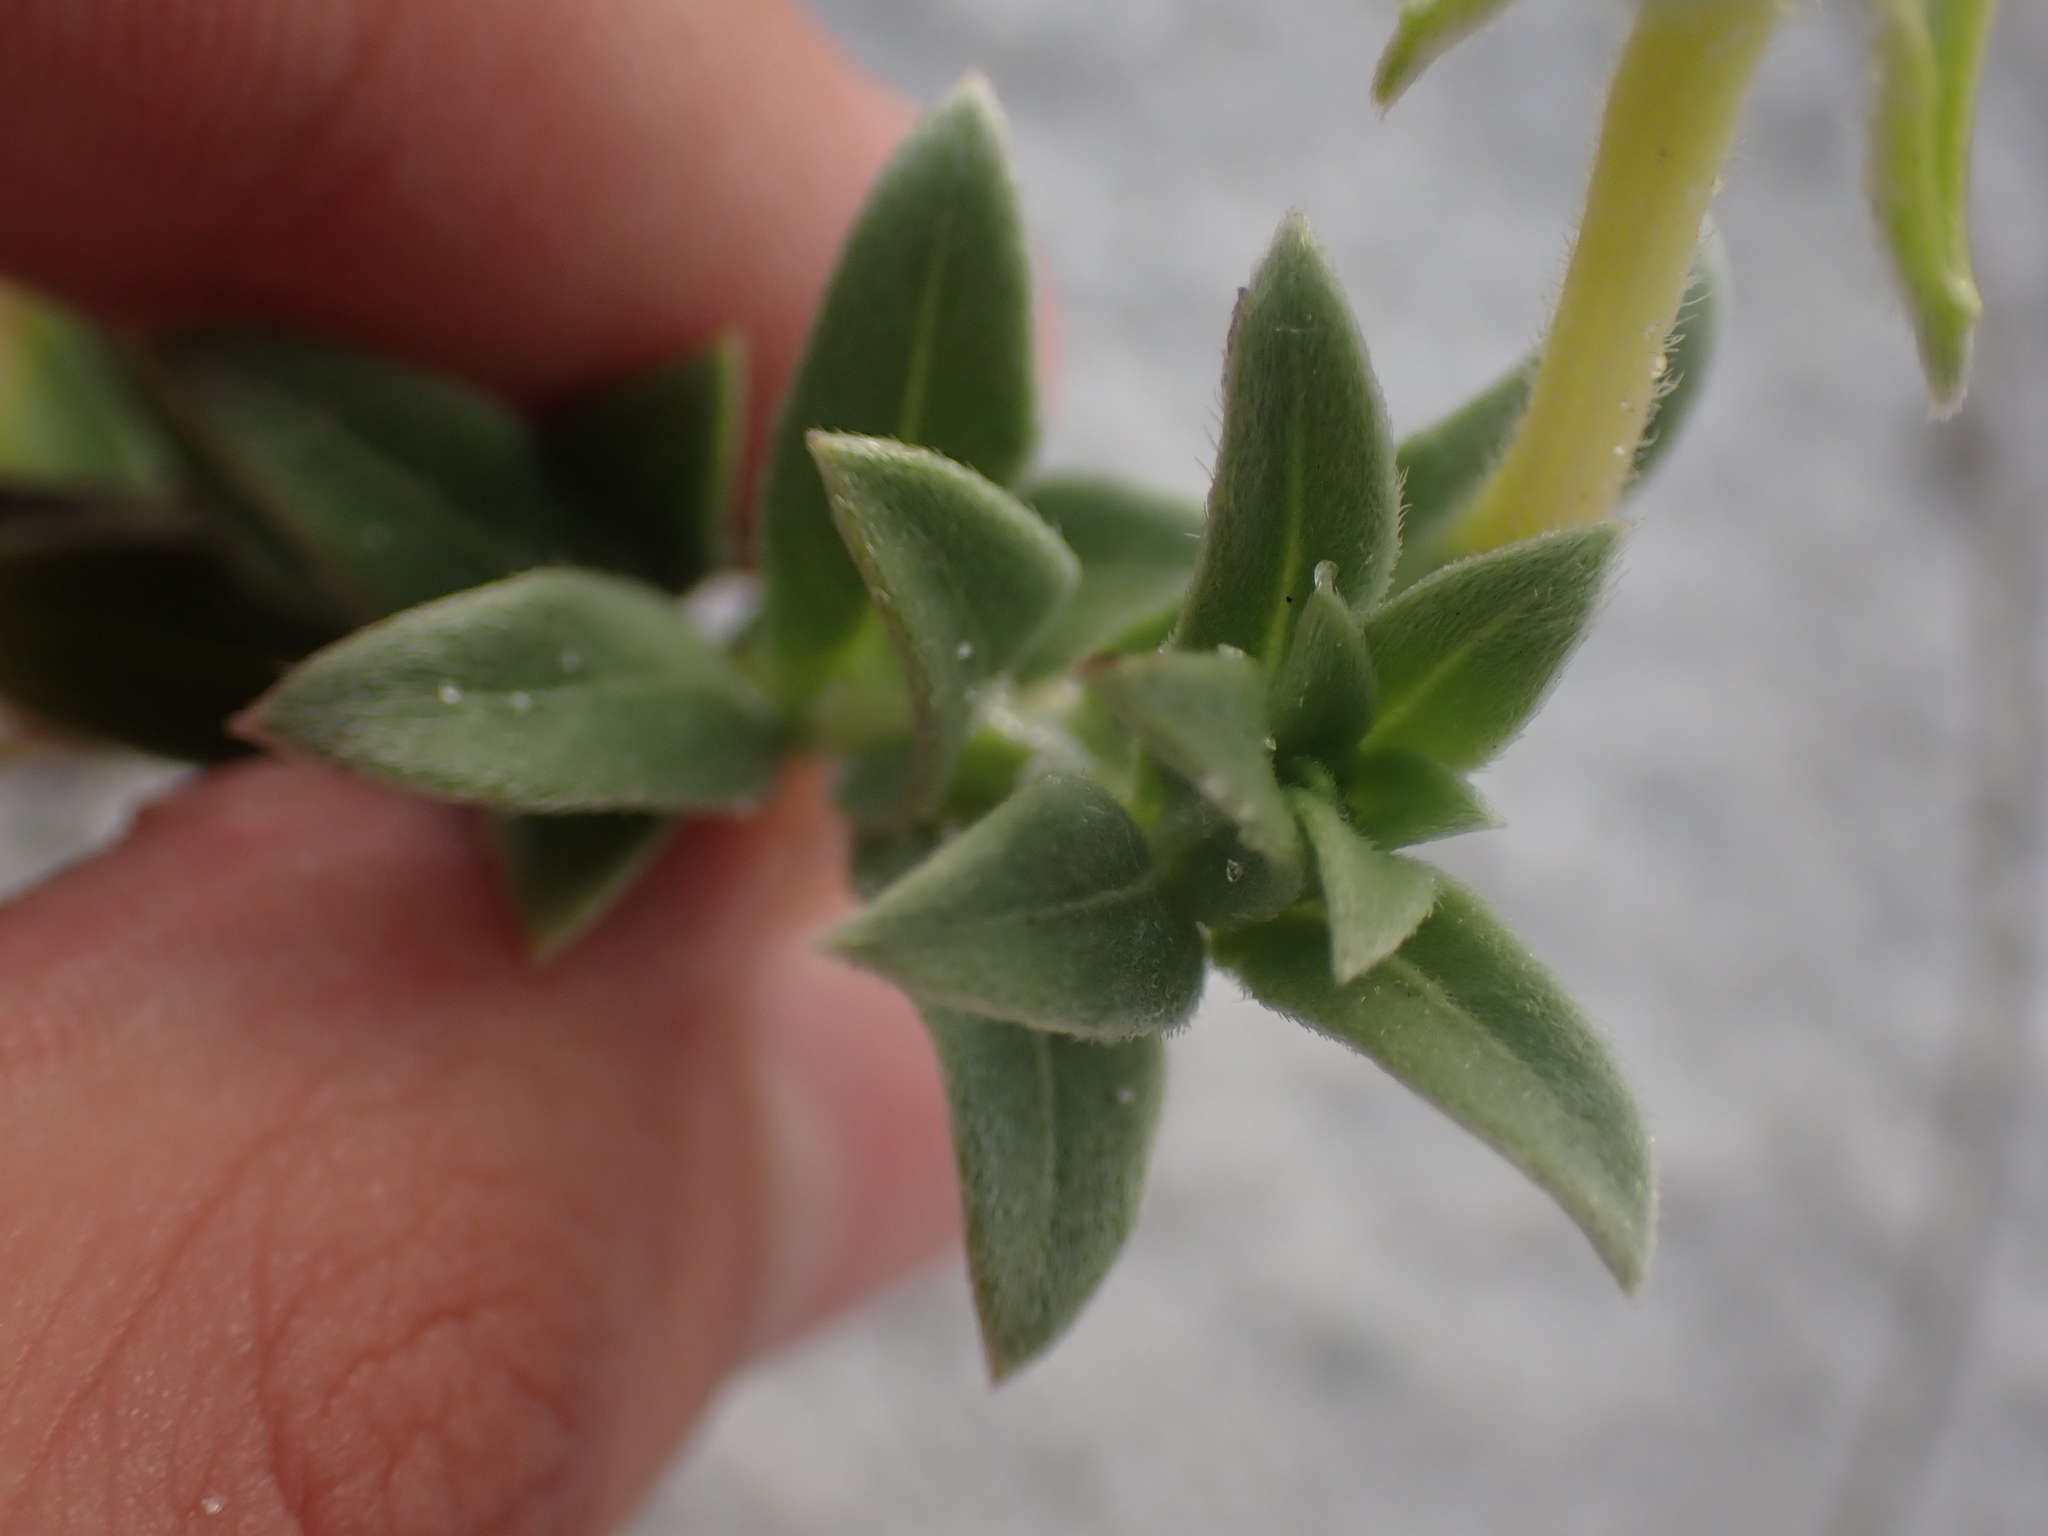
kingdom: Plantae
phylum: Tracheophyta
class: Magnoliopsida
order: Myrtales
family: Onagraceae
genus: Oenothera
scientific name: Oenothera drummondii
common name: Beach evening-primrose
